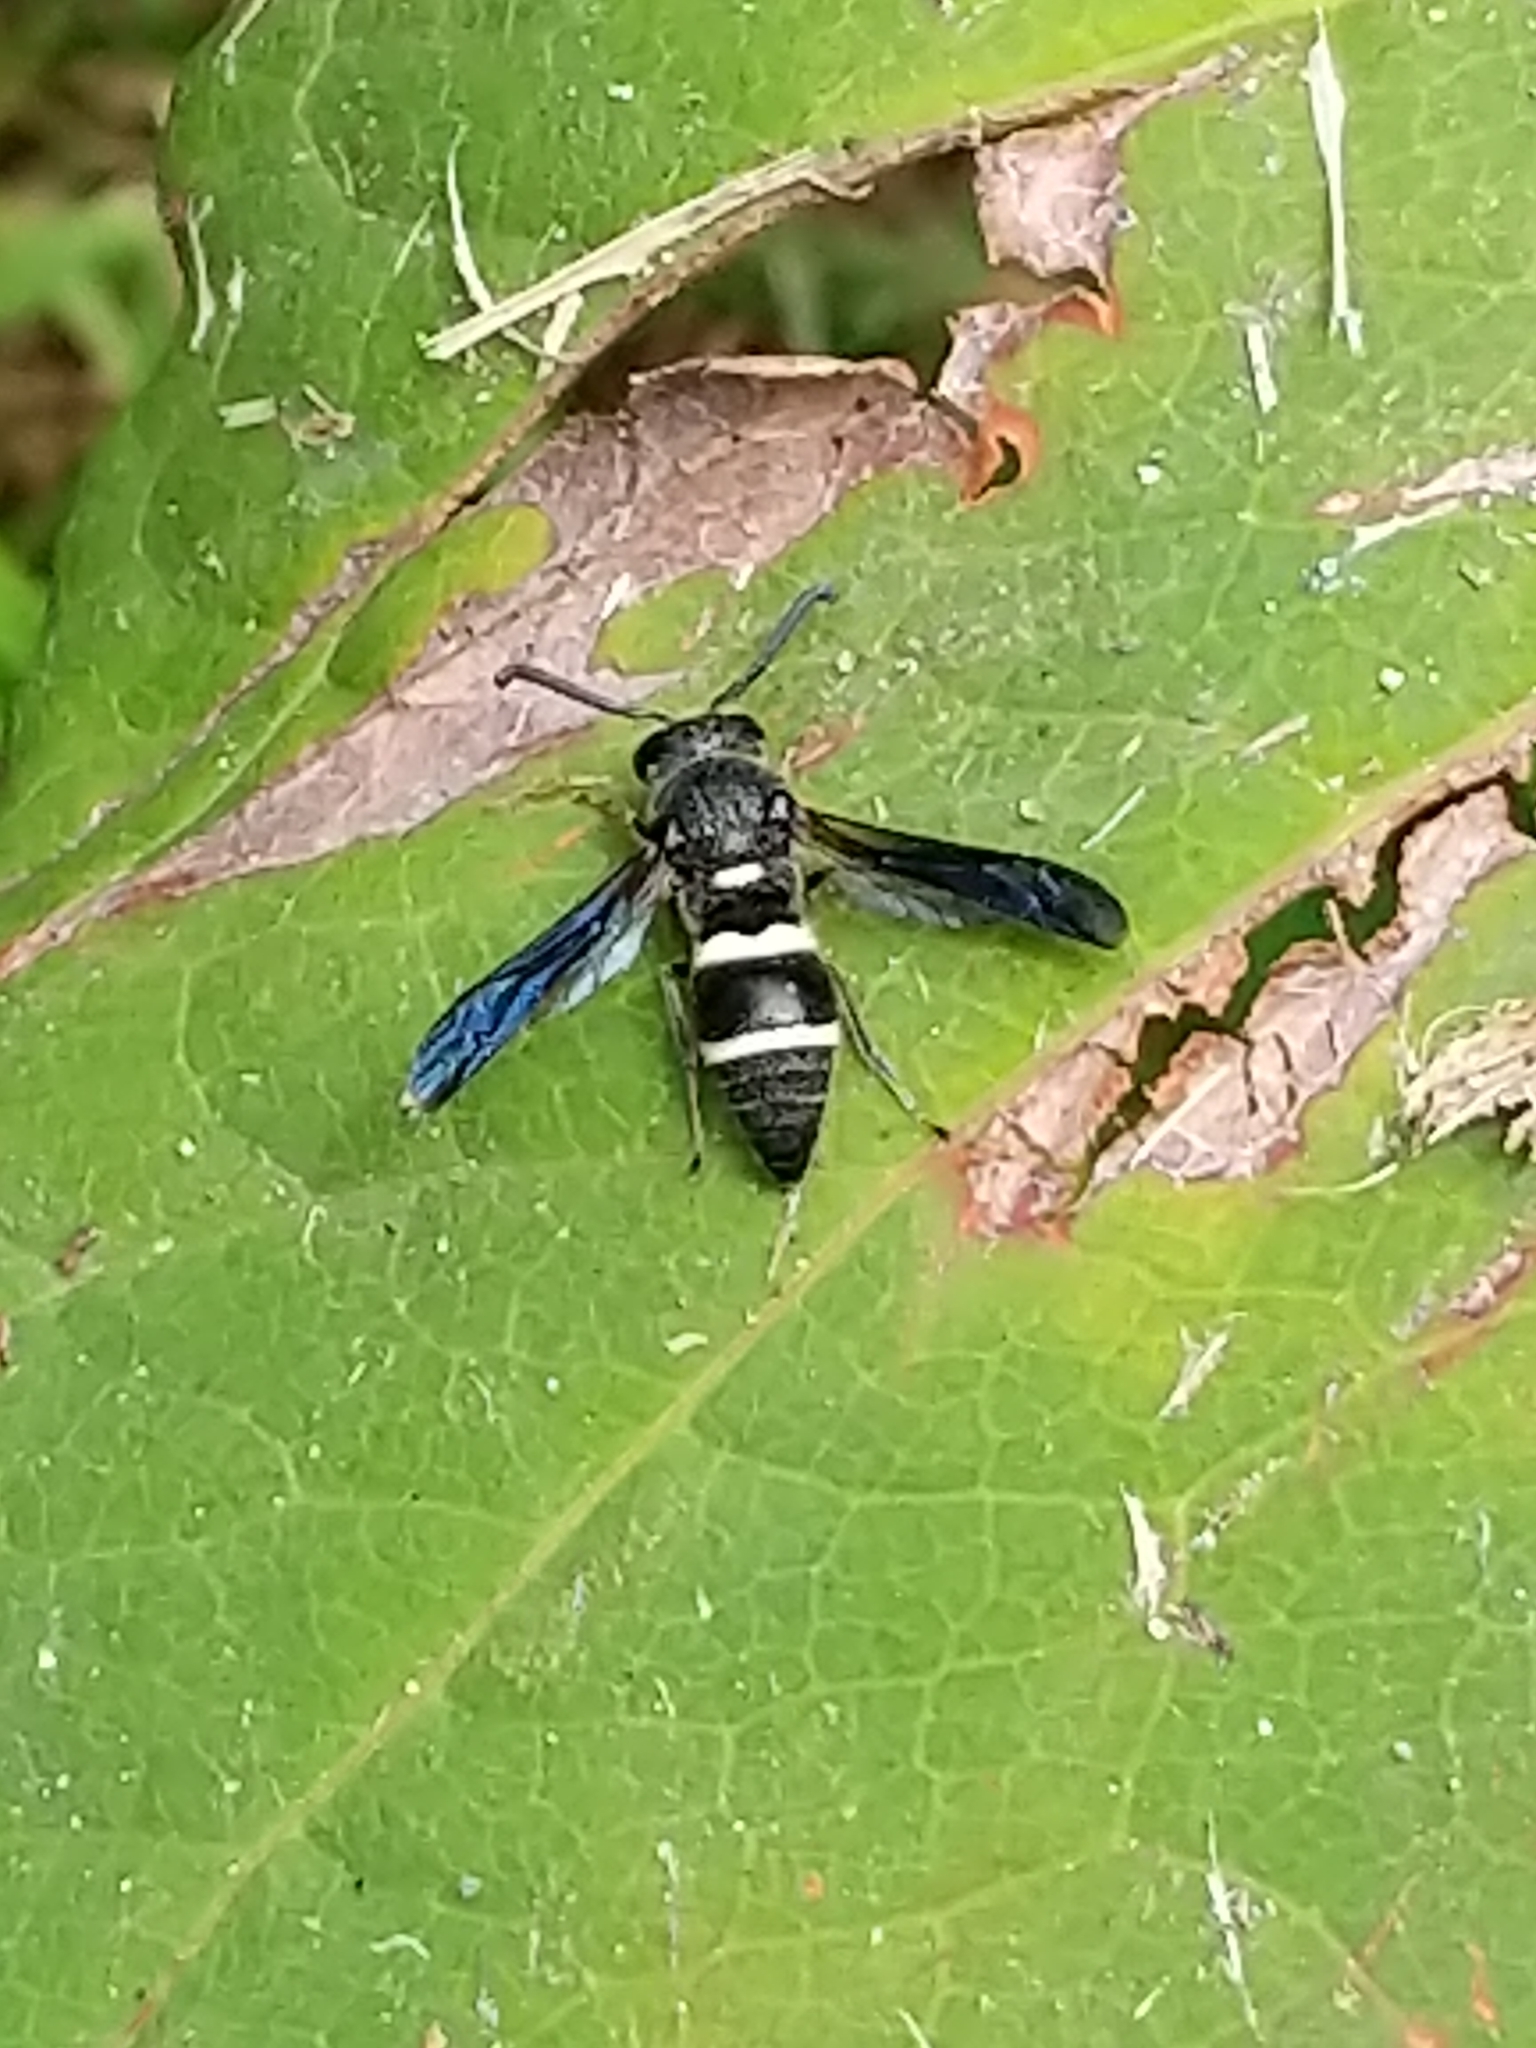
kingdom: Animalia
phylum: Arthropoda
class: Insecta
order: Hymenoptera
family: Eumenidae
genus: Euodynerus
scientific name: Euodynerus
